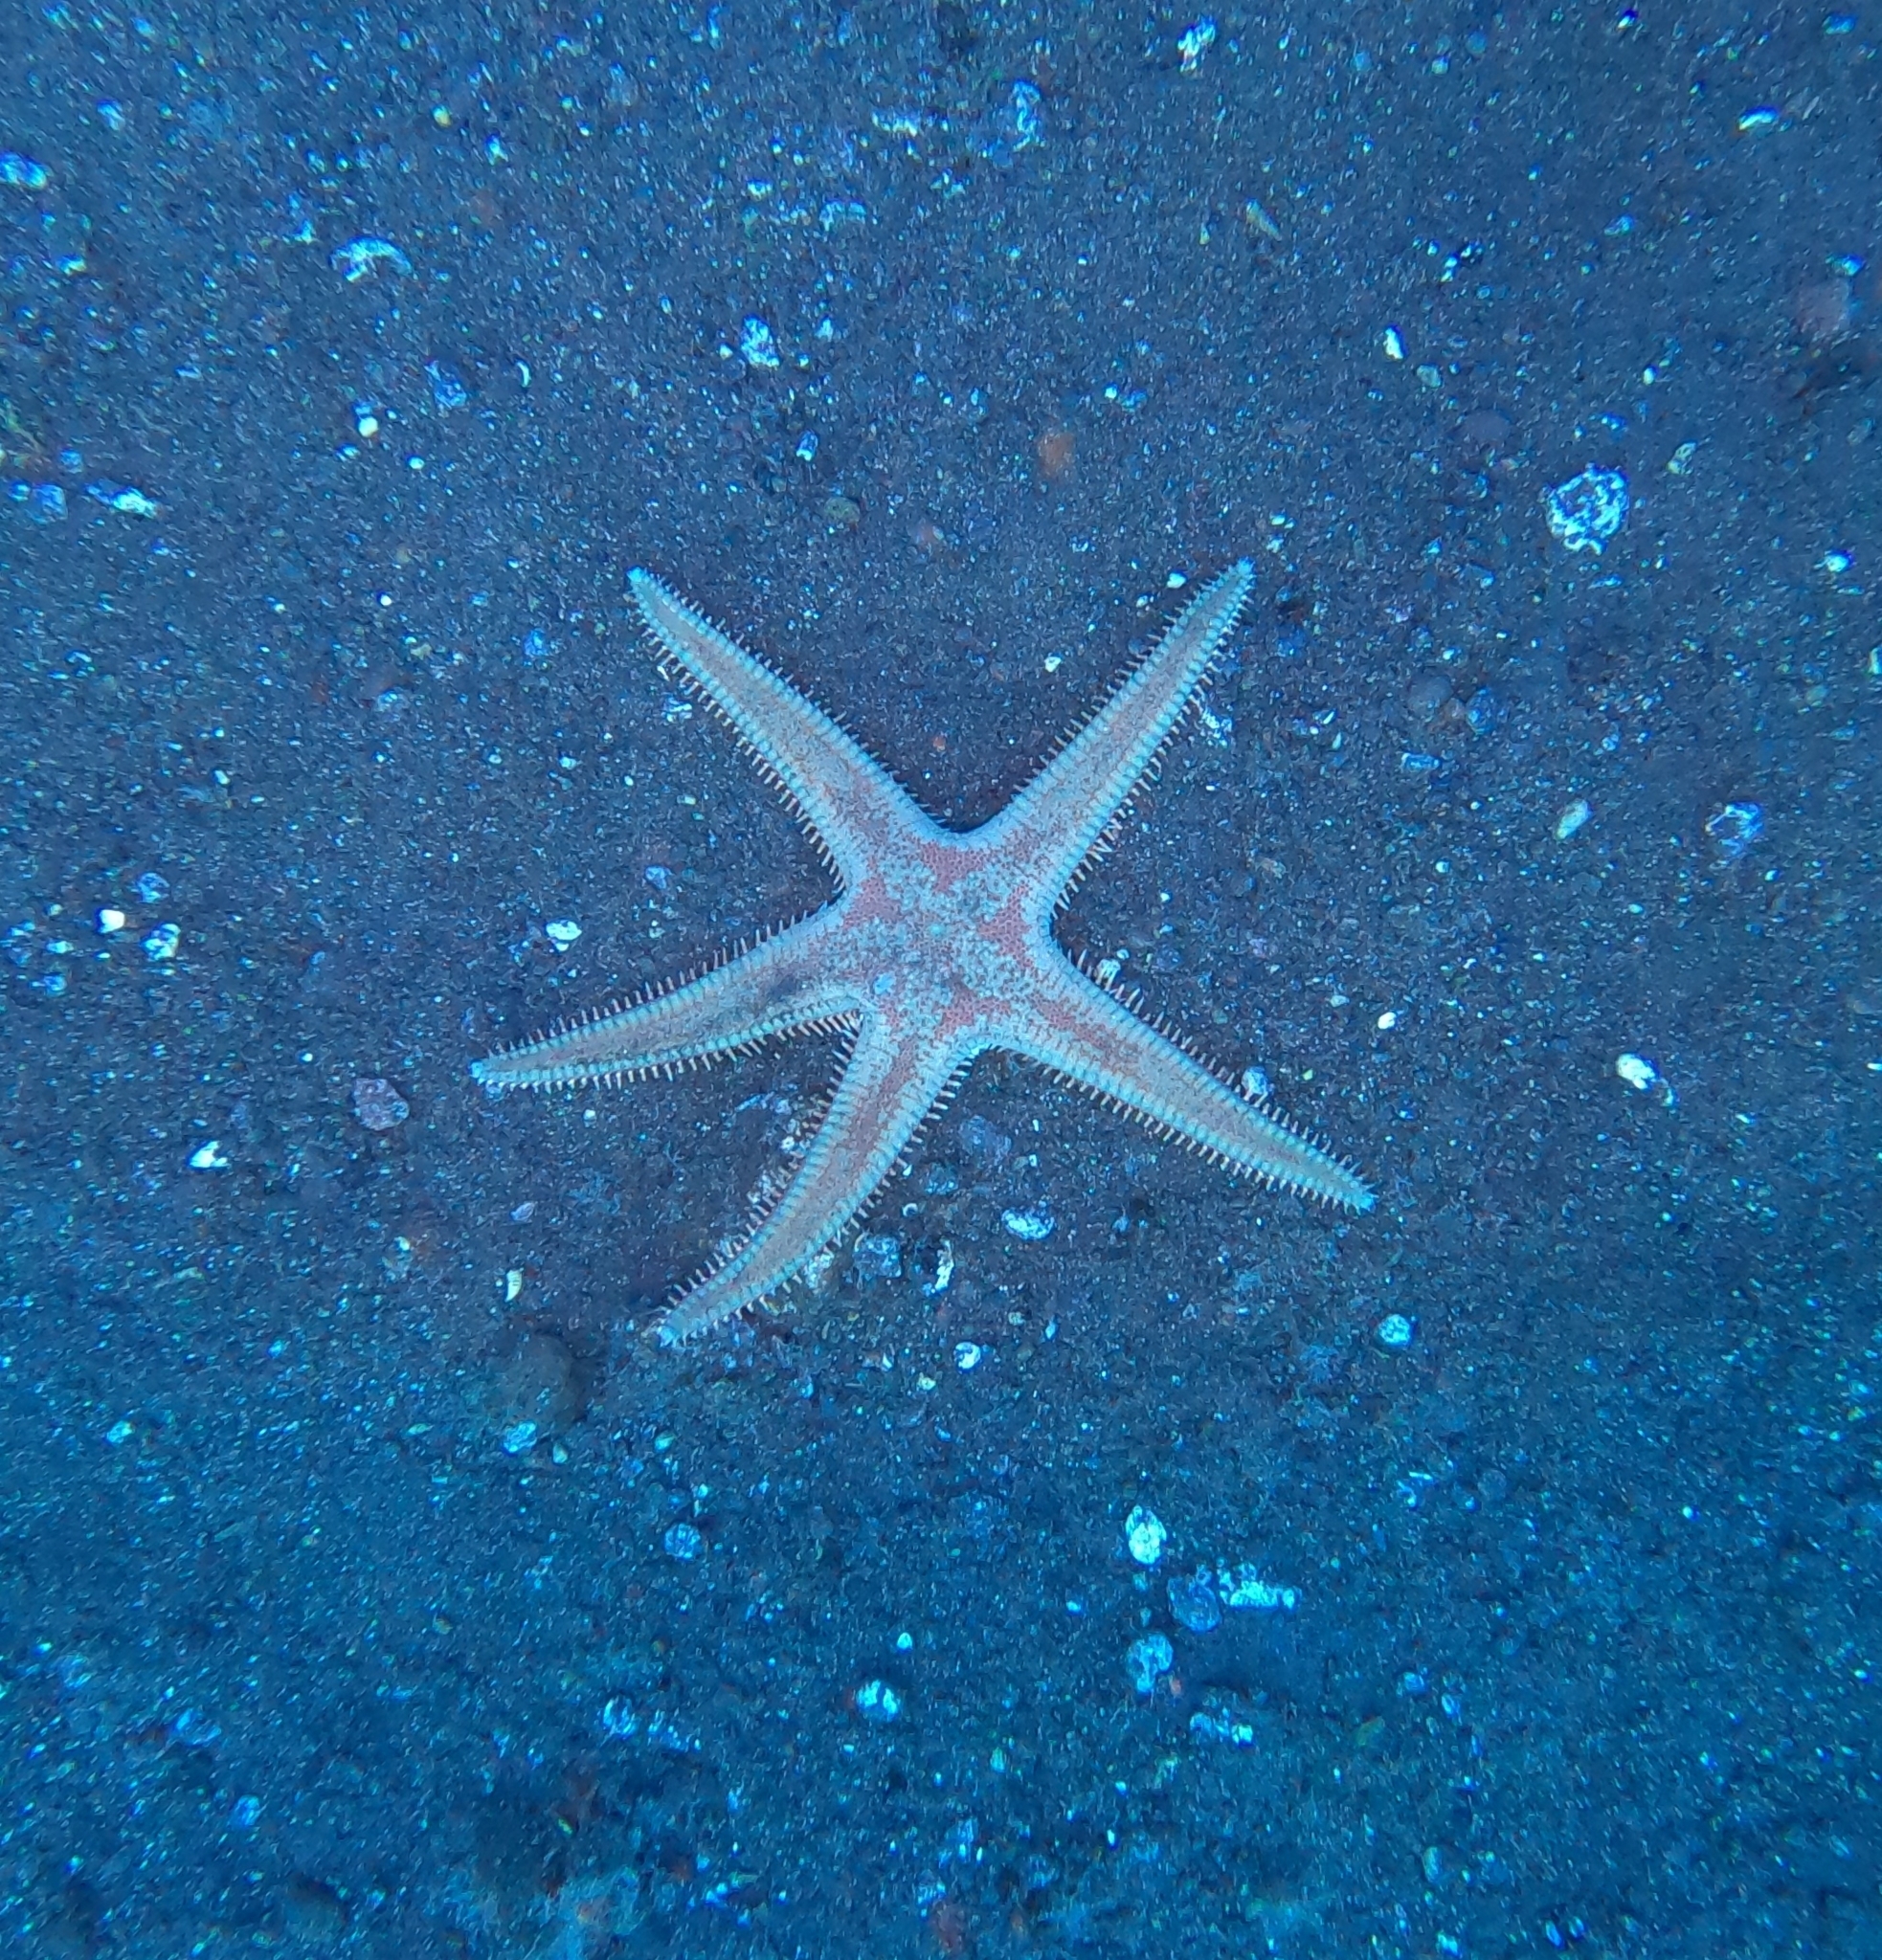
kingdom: Animalia
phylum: Echinodermata
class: Asteroidea
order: Paxillosida
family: Astropectinidae
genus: Astropecten
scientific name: Astropecten aranciacus
